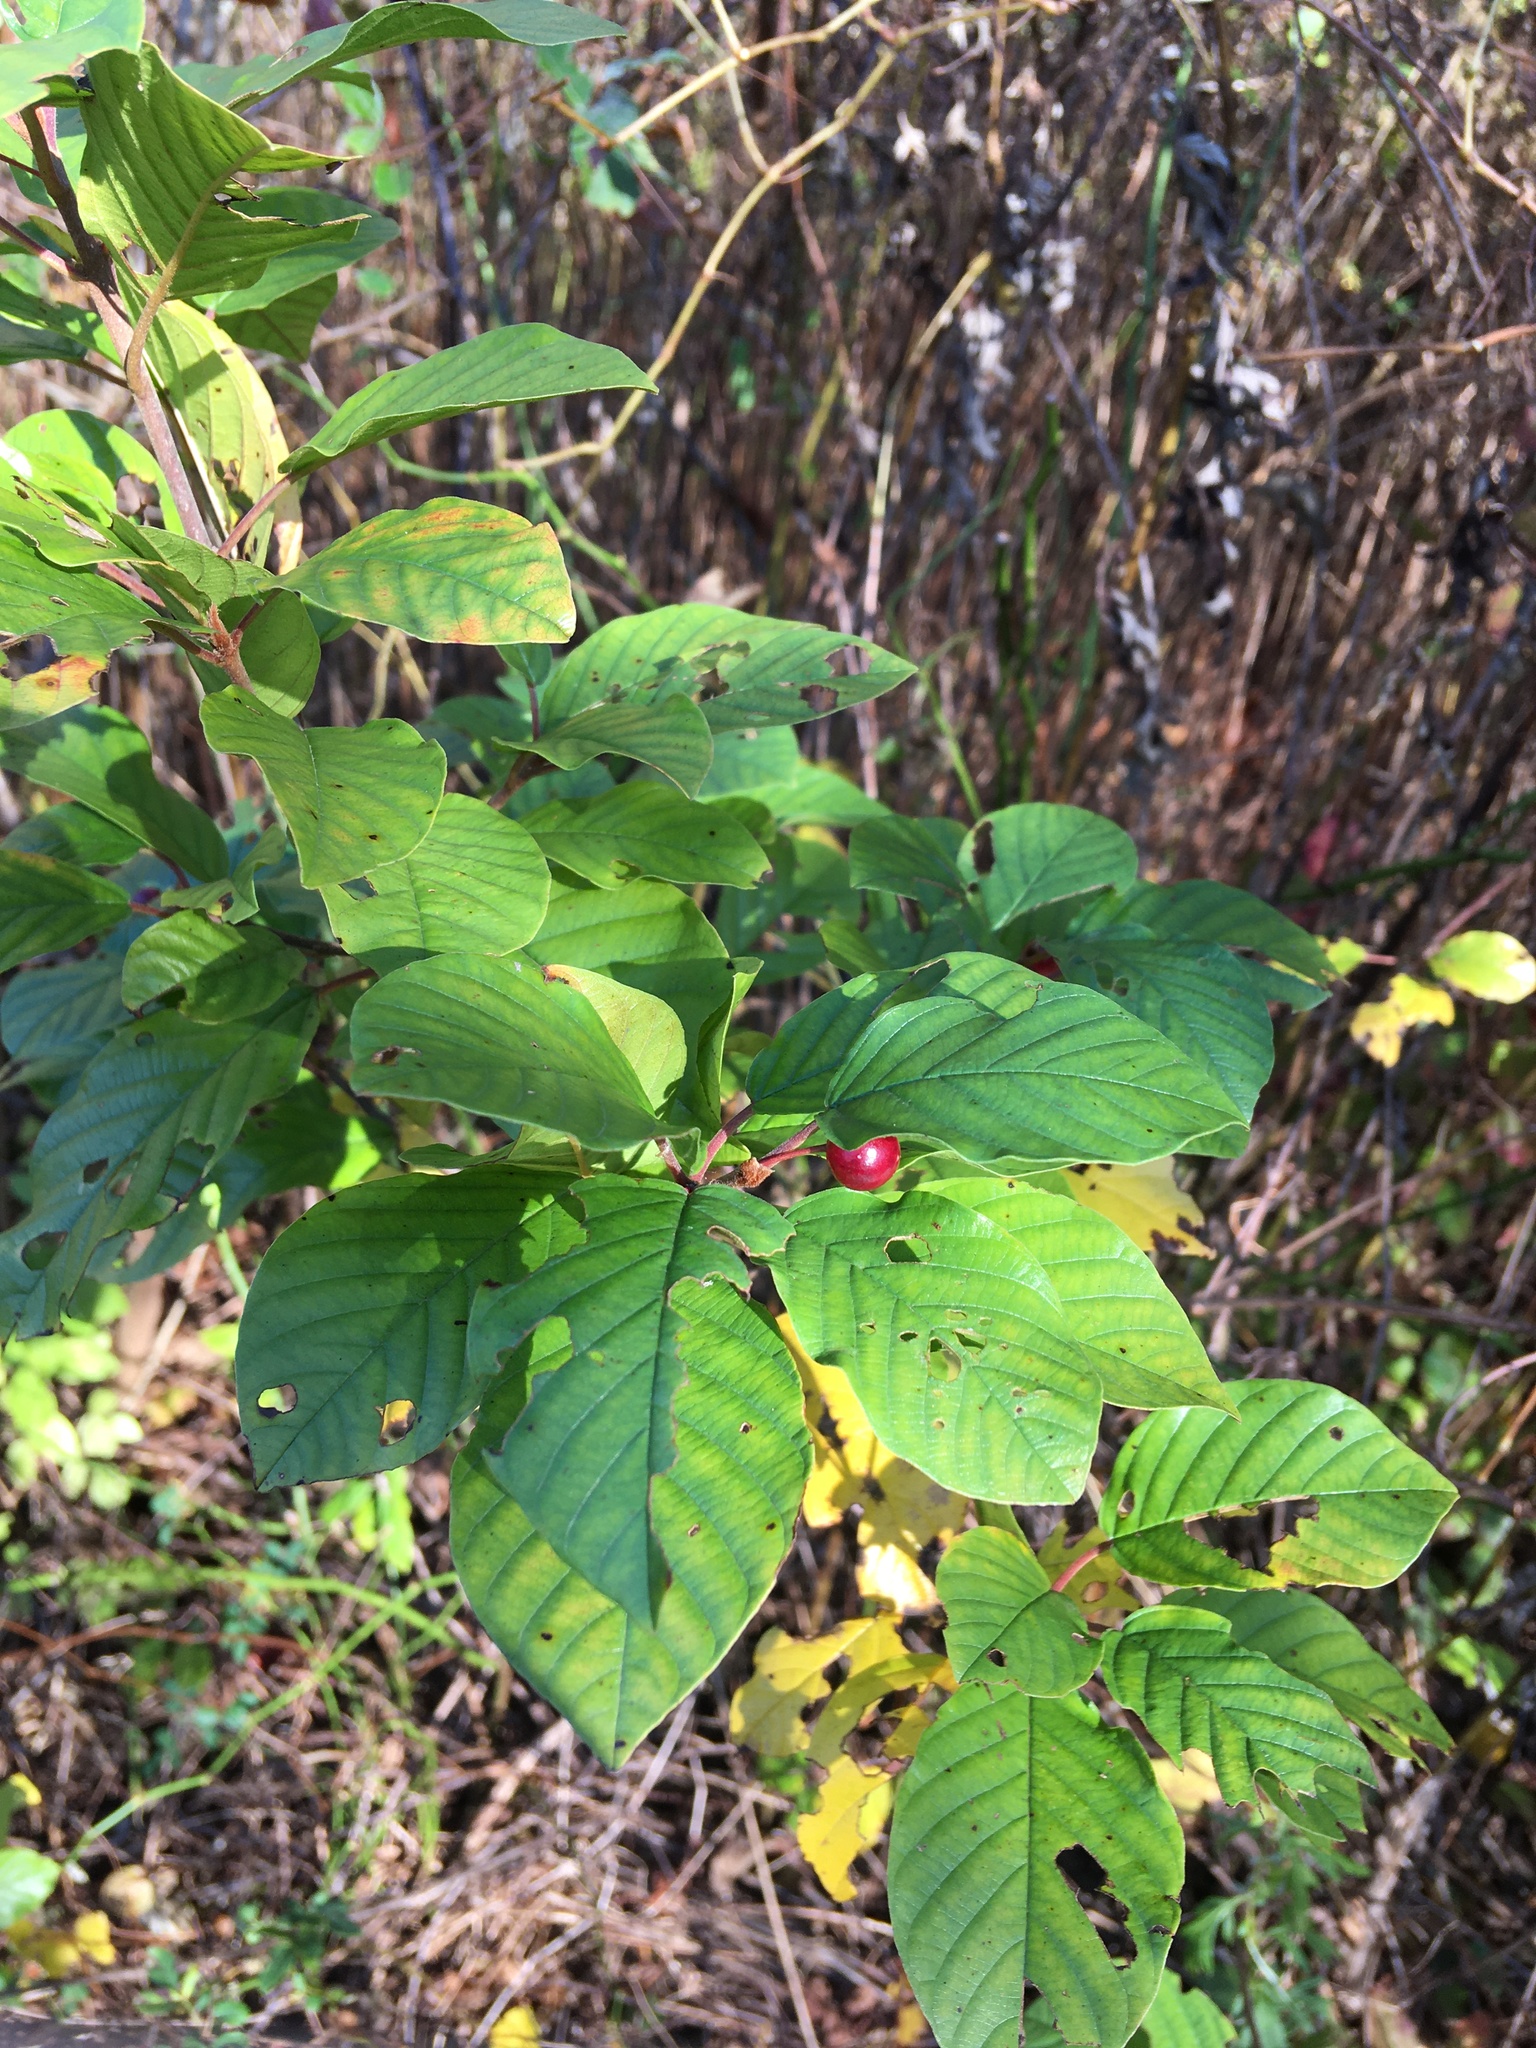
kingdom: Plantae
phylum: Tracheophyta
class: Magnoliopsida
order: Rosales
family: Rhamnaceae
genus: Frangula
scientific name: Frangula alnus
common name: Alder buckthorn
